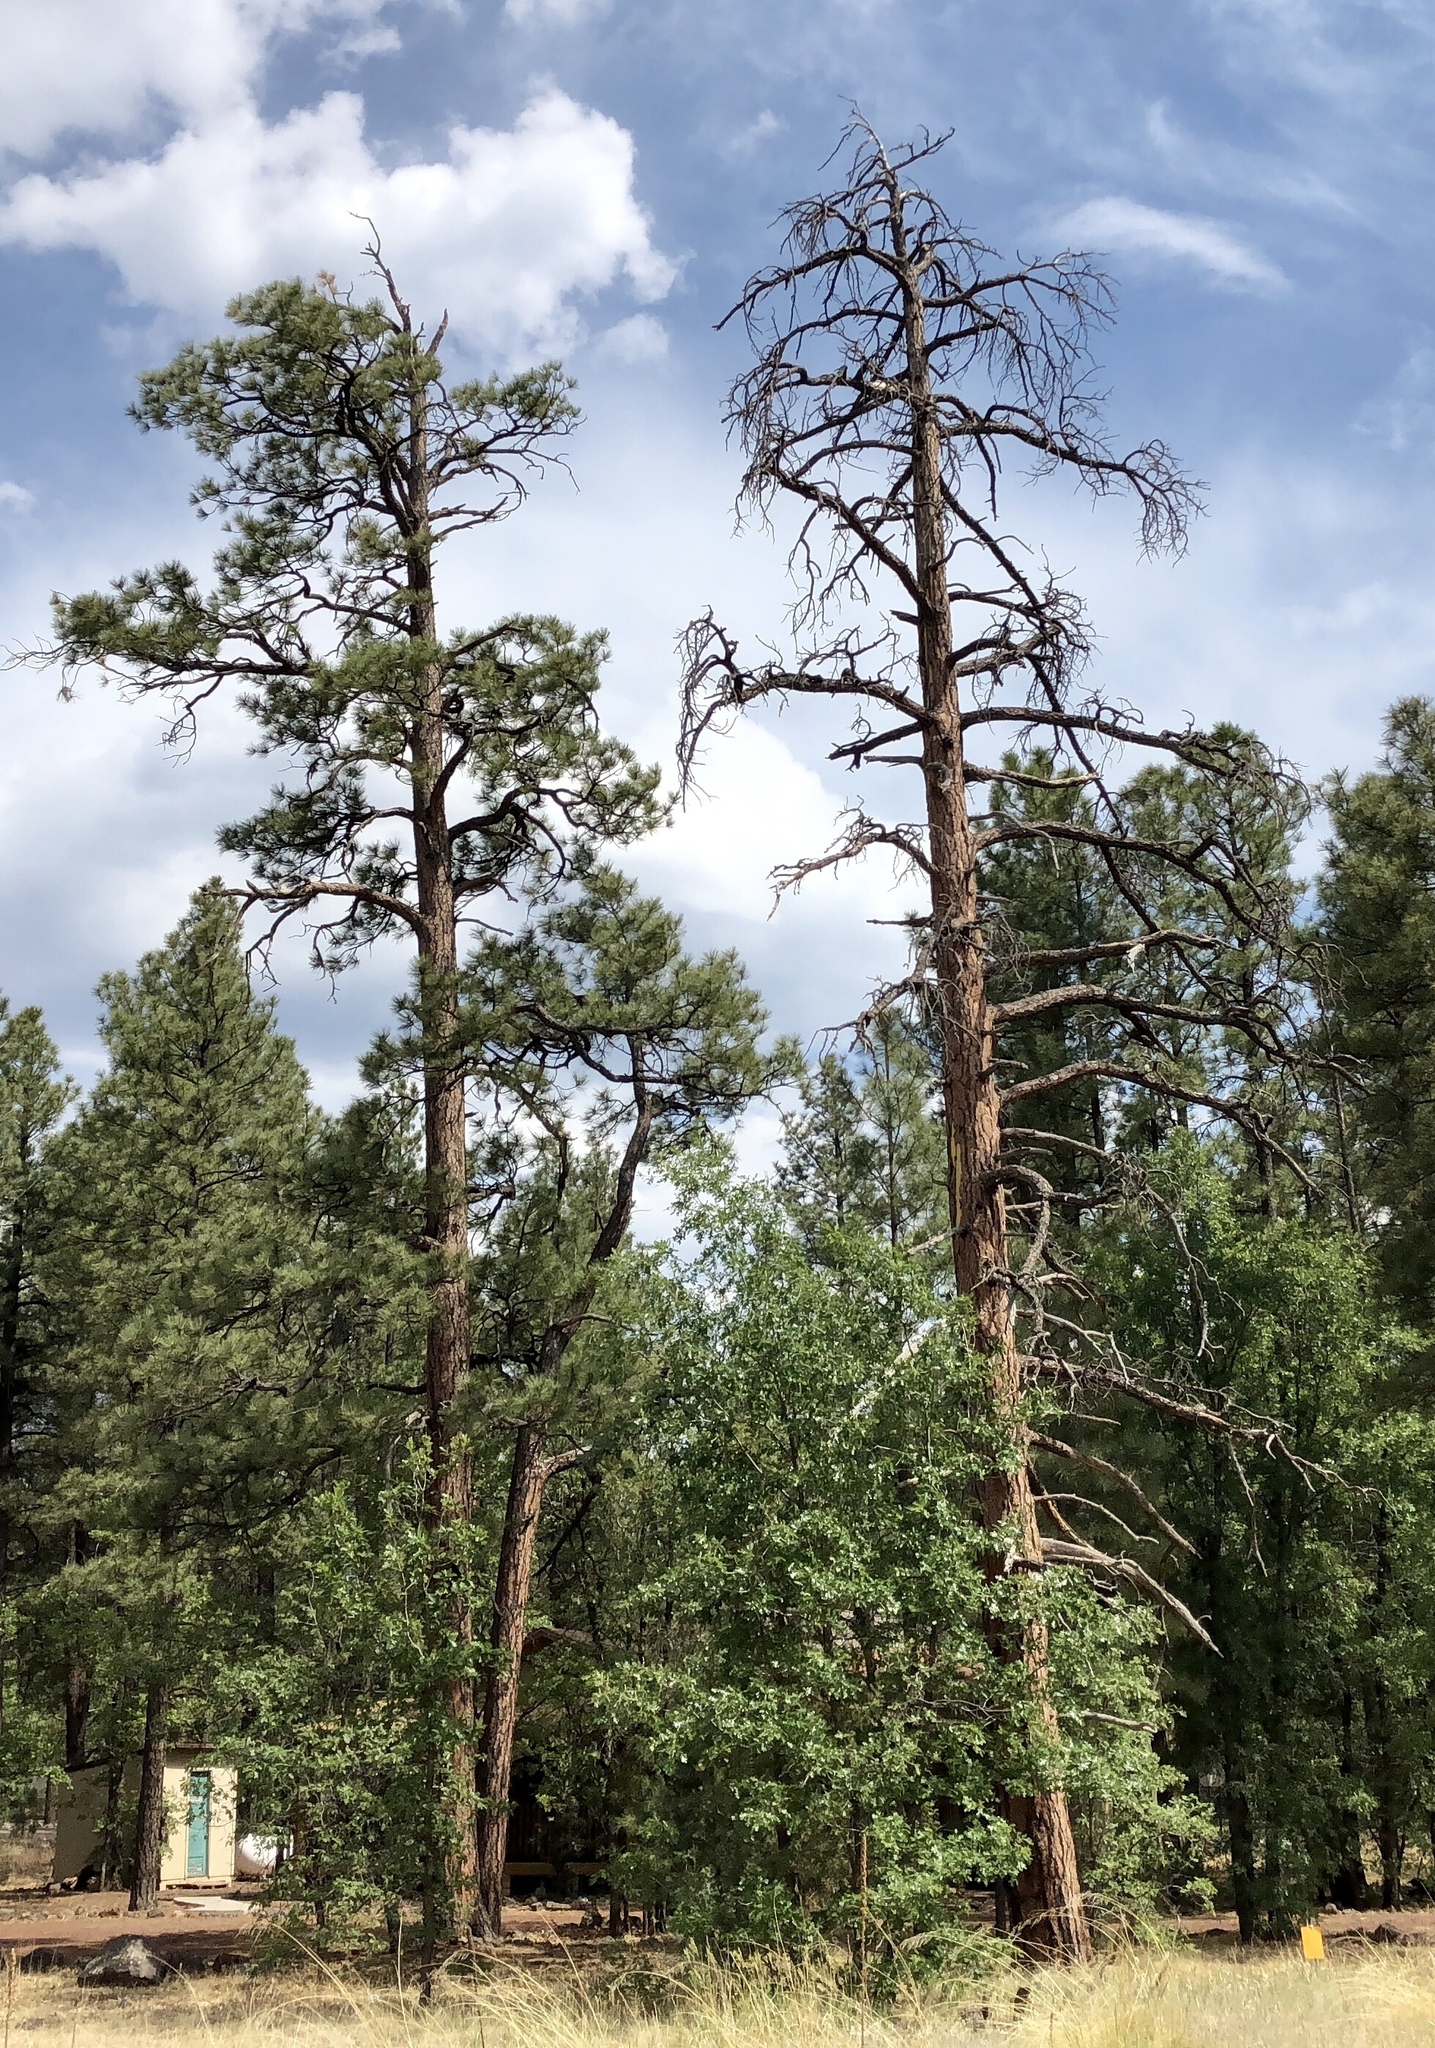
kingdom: Plantae
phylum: Tracheophyta
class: Pinopsida
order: Pinales
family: Pinaceae
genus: Pinus
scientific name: Pinus ponderosa
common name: Western yellow-pine
